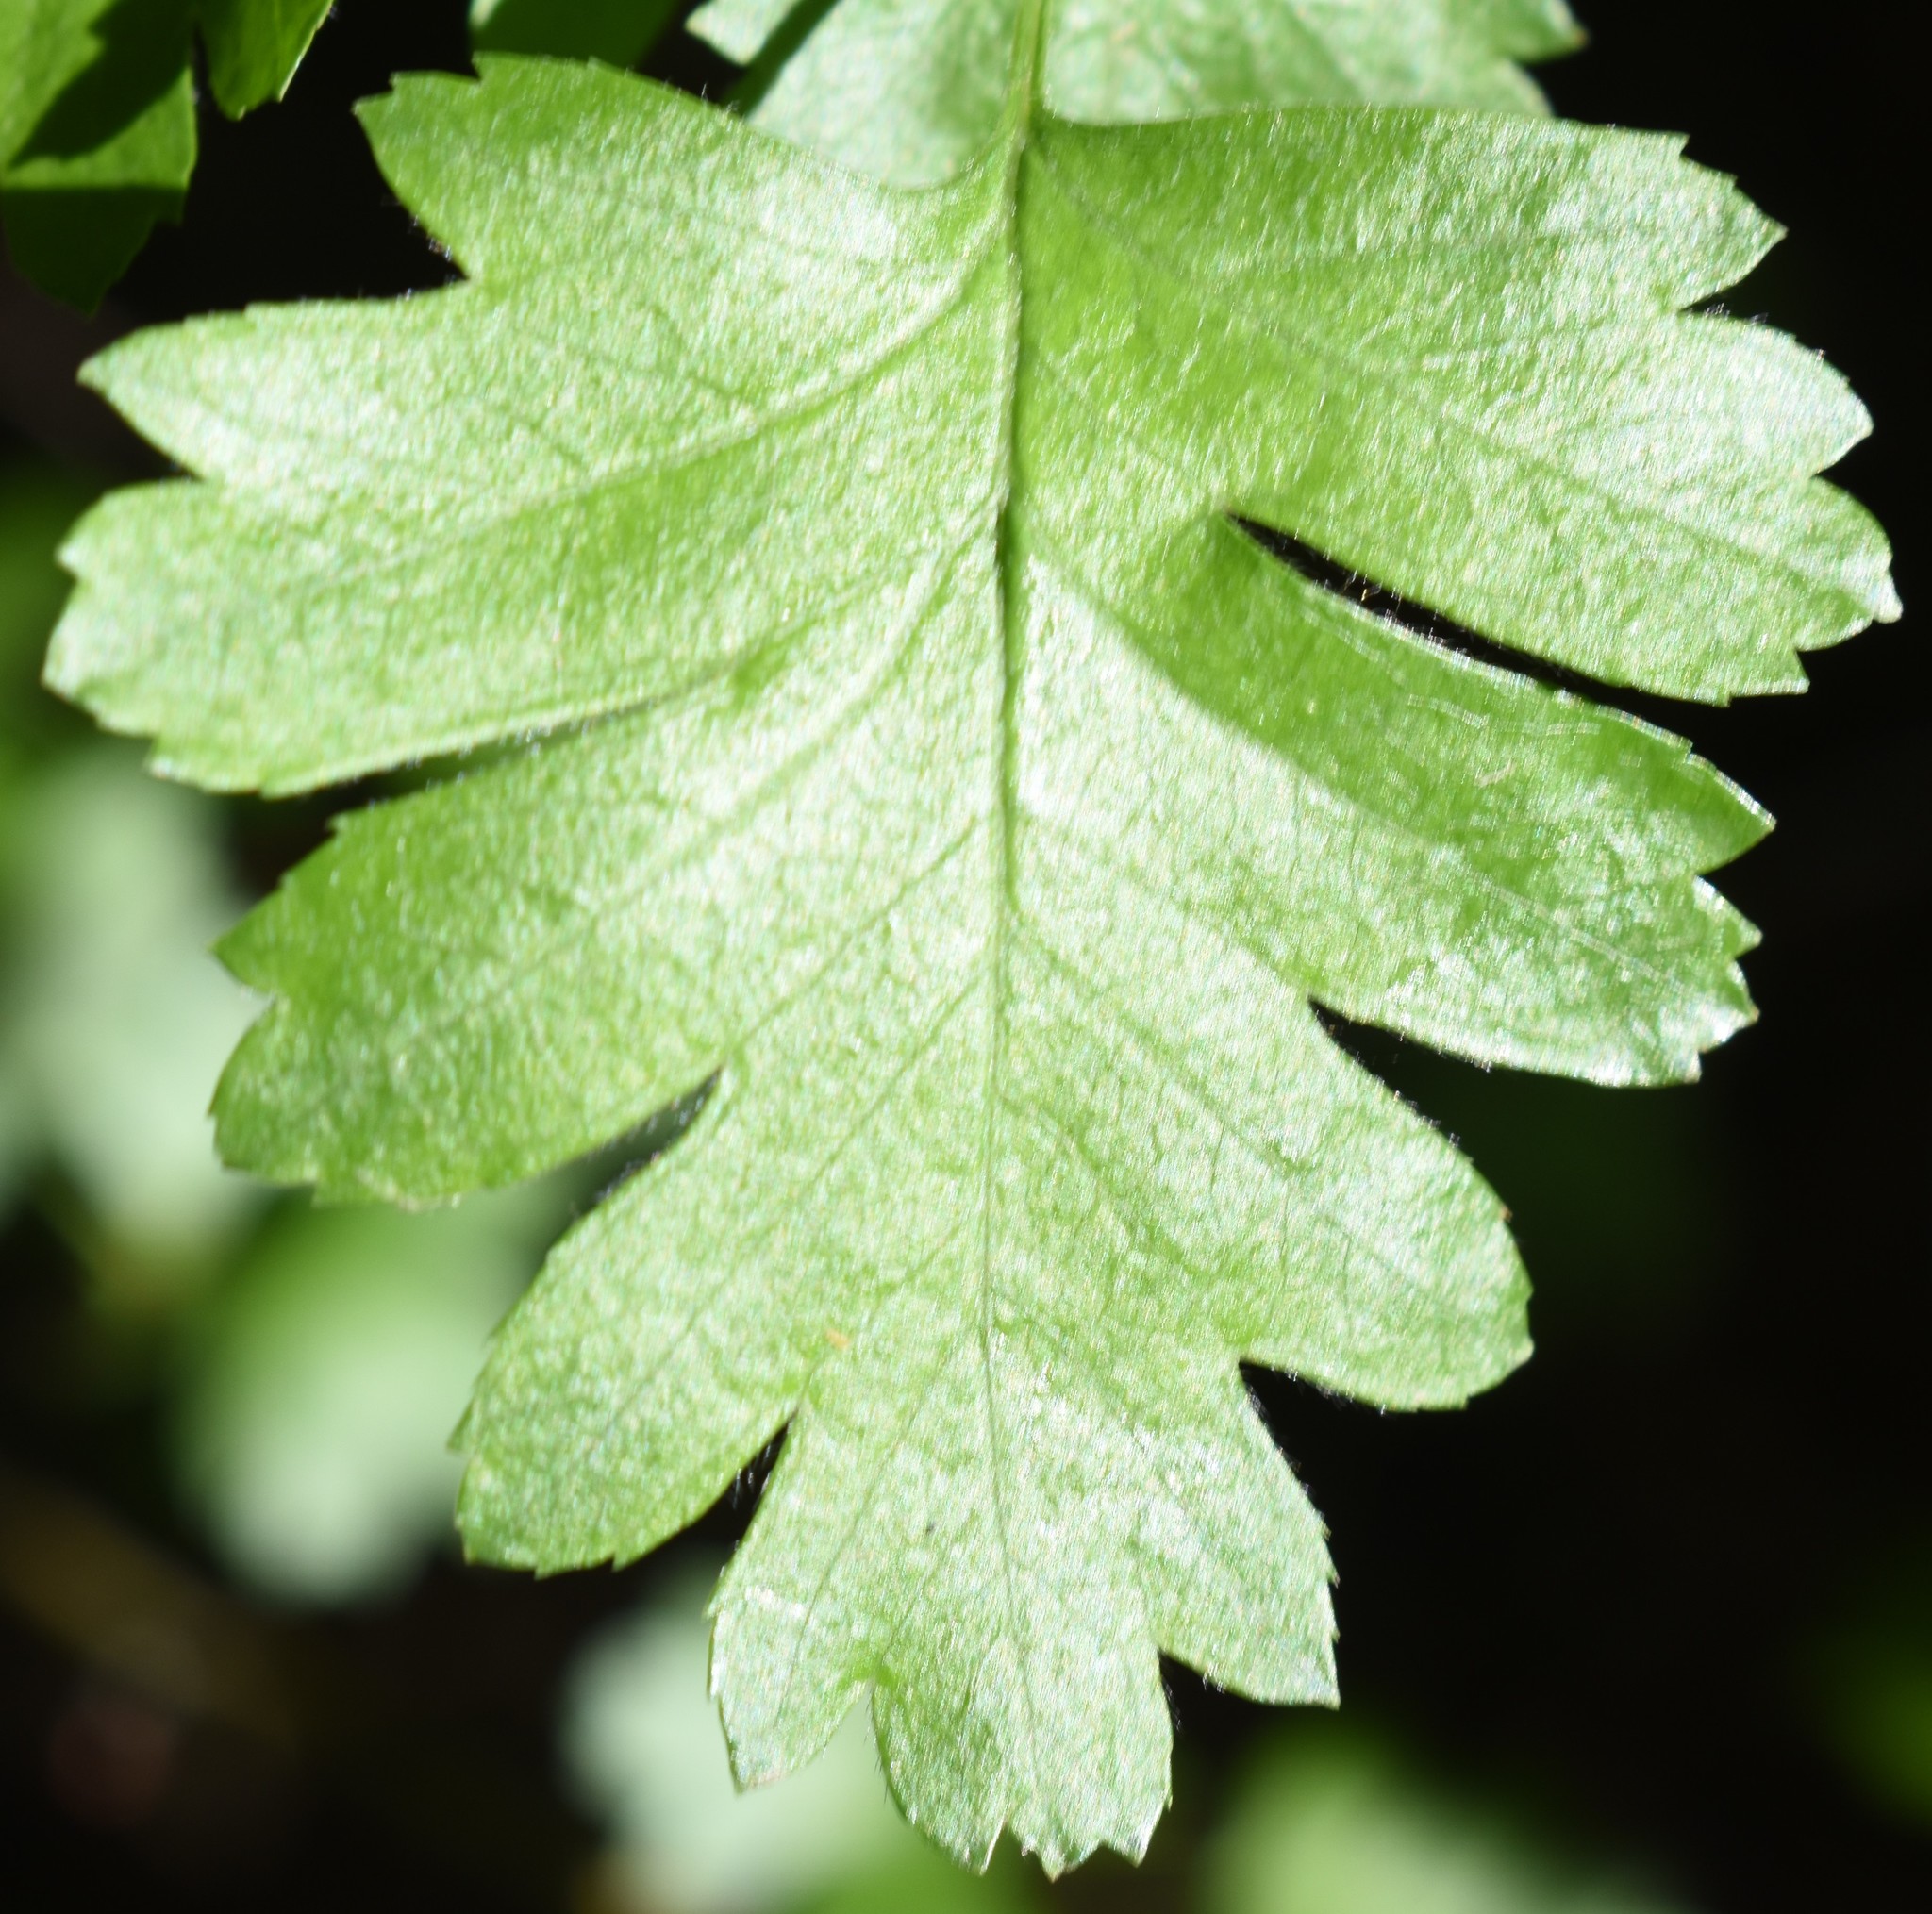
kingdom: Plantae
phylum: Tracheophyta
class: Magnoliopsida
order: Rosales
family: Rosaceae
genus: Crataegus
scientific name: Crataegus monogyna
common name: Hawthorn
